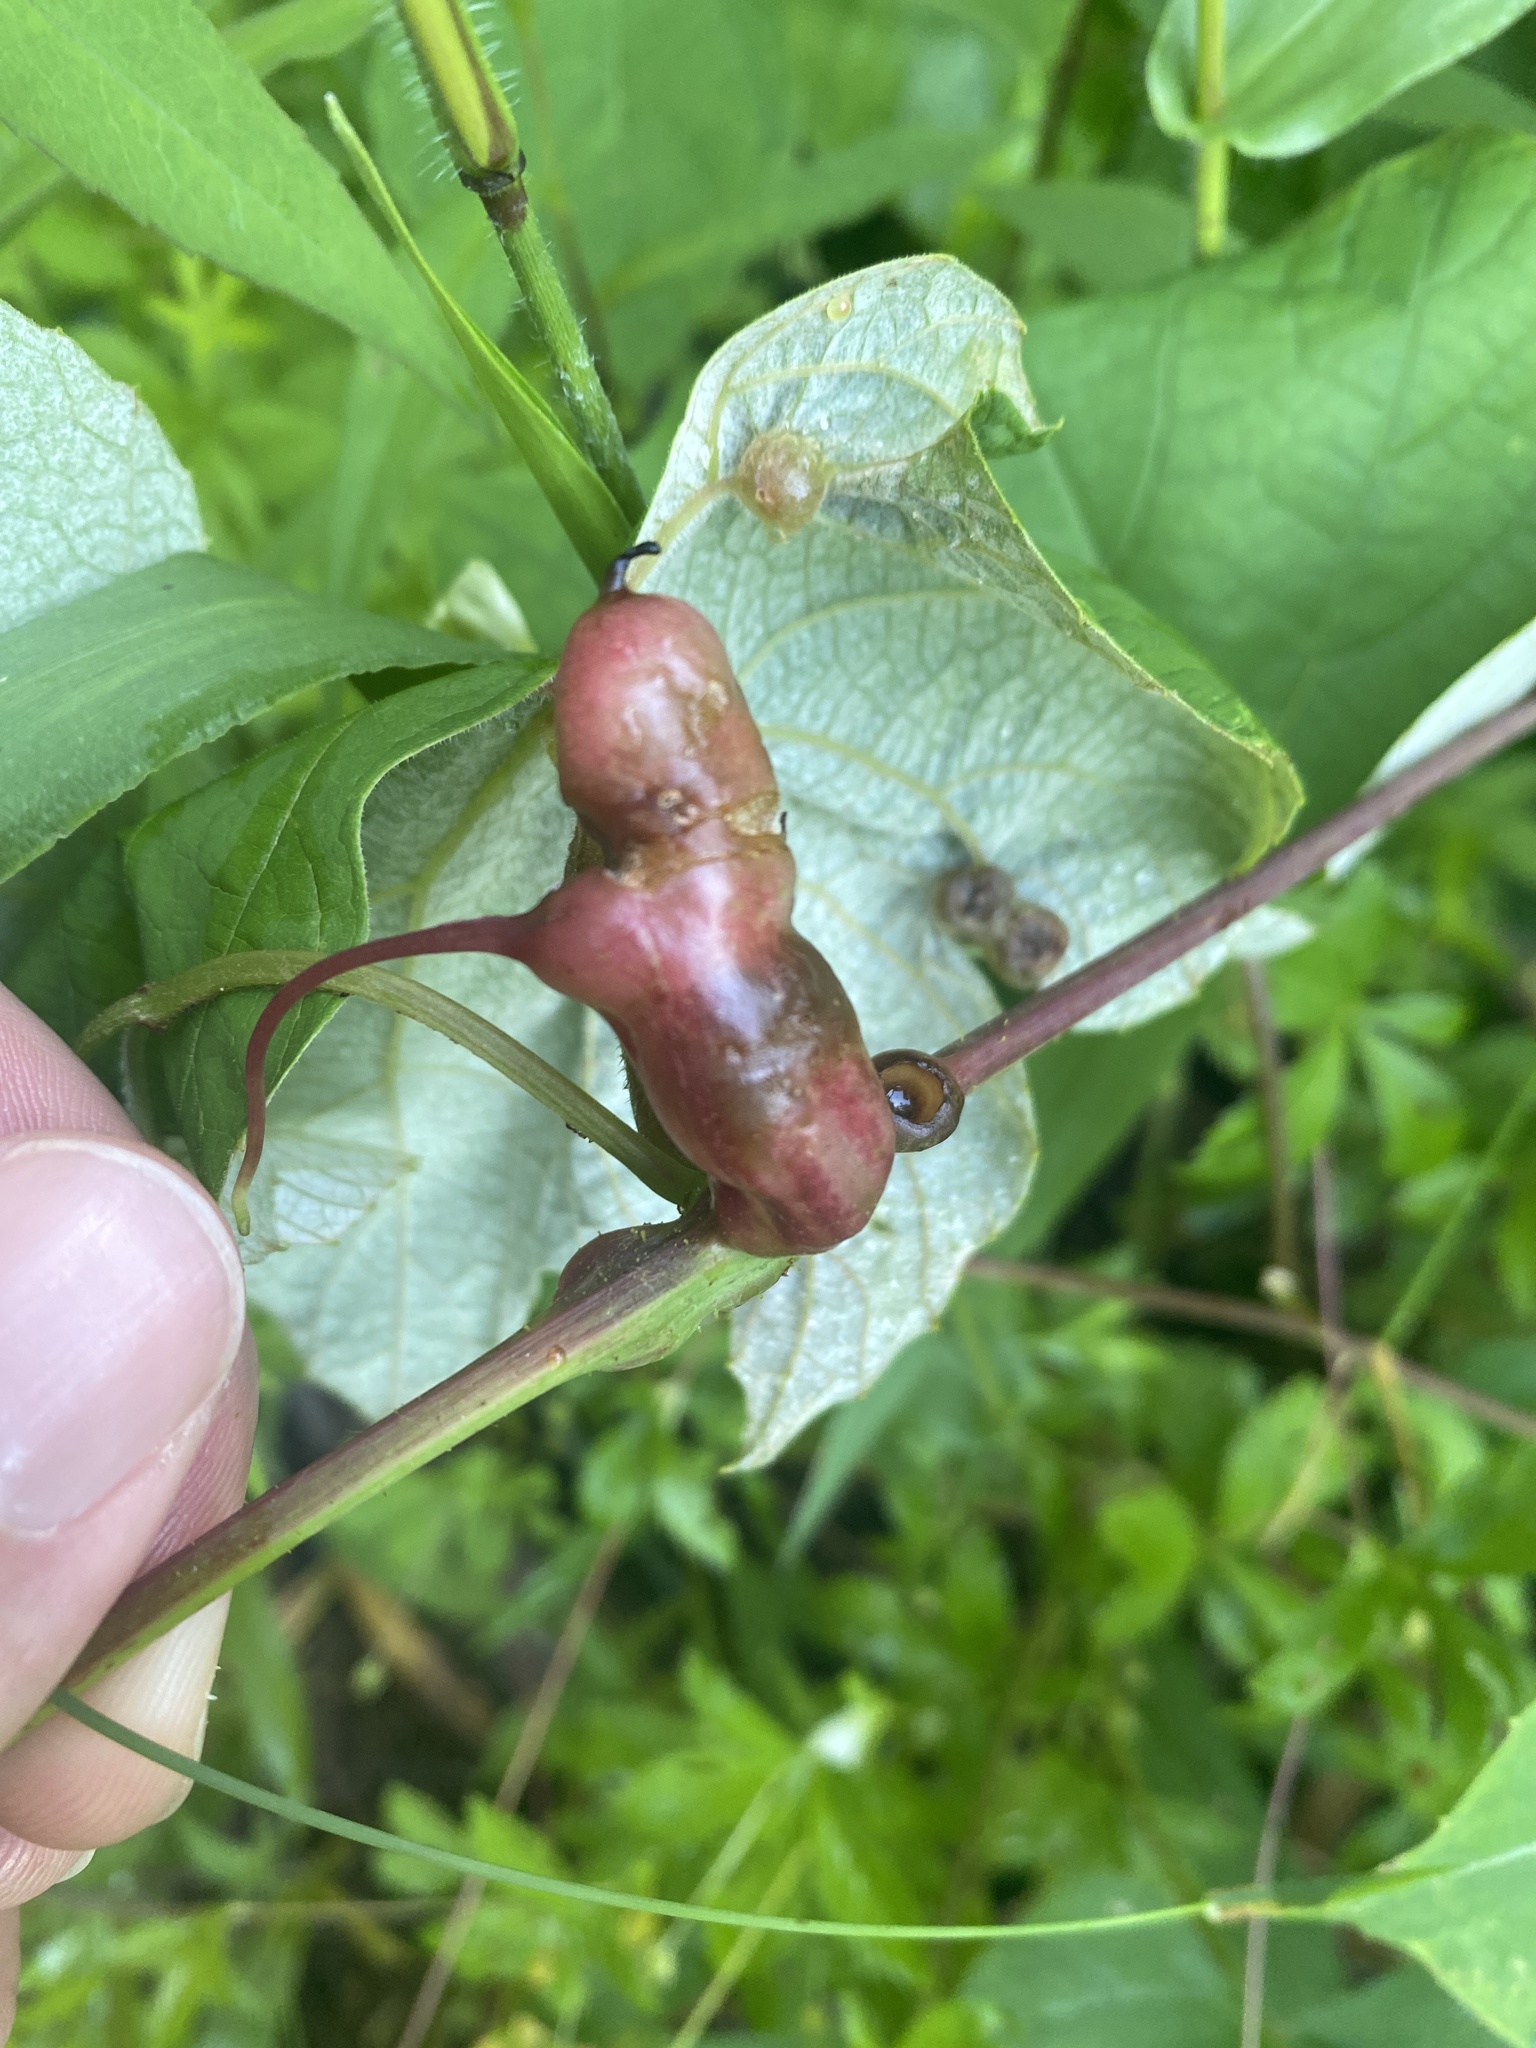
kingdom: Animalia
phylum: Arthropoda
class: Insecta
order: Diptera
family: Cecidomyiidae
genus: Vitisiella
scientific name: Vitisiella brevicauda
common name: Grape tumid gallmaker midge
